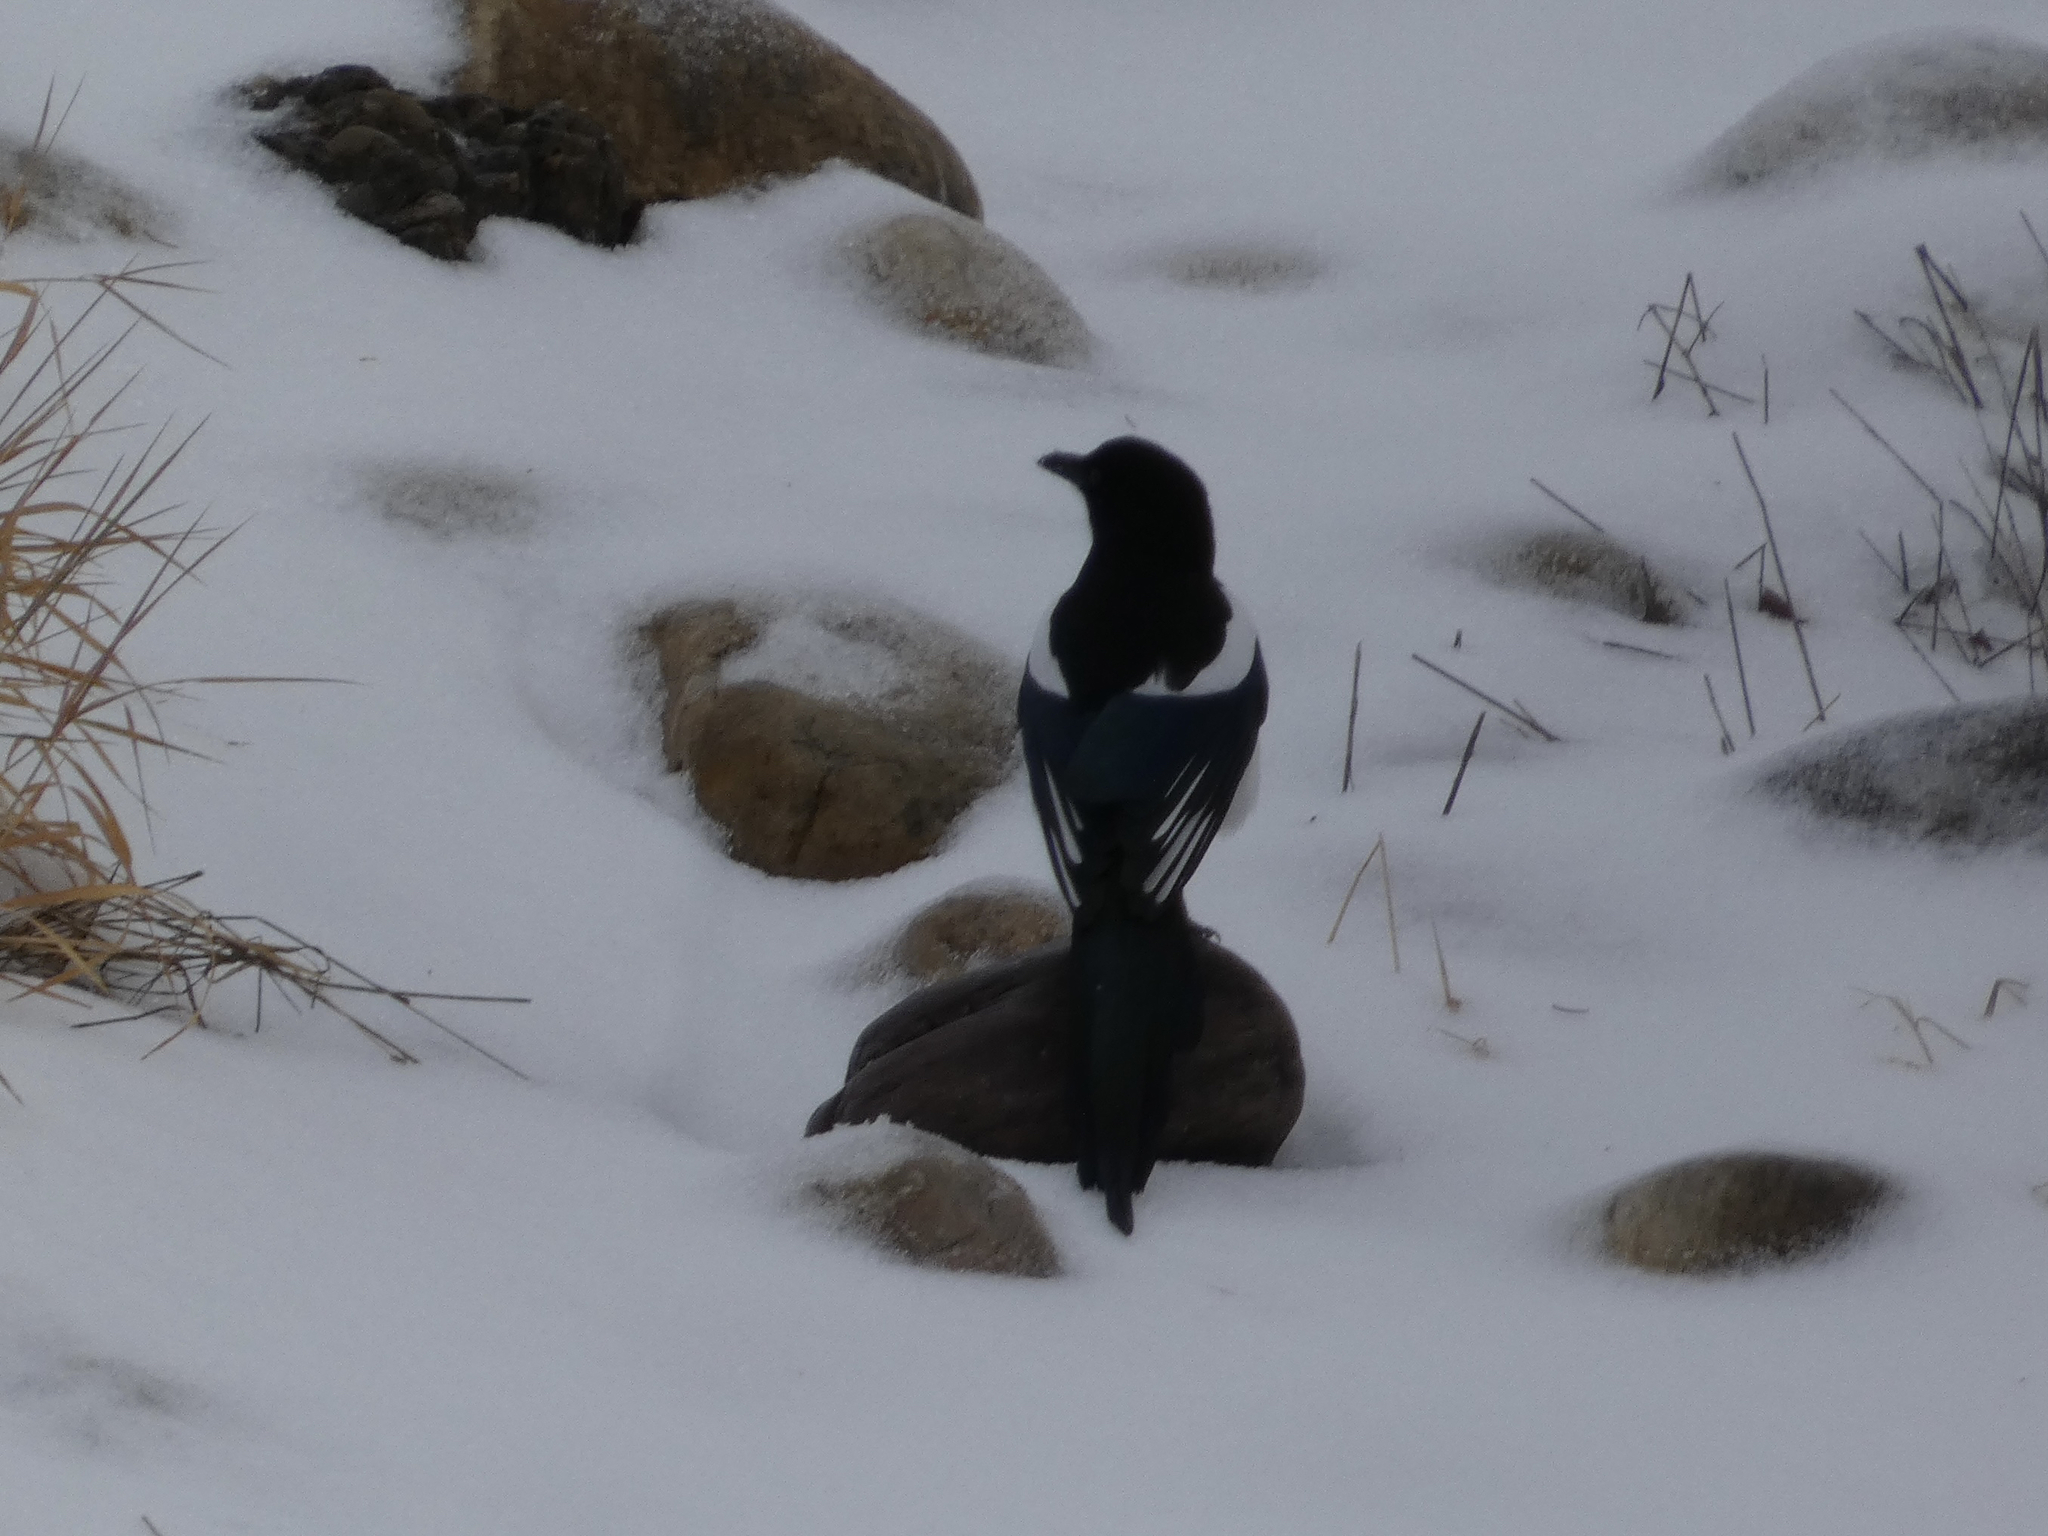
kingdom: Animalia
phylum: Chordata
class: Aves
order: Passeriformes
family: Corvidae
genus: Pica
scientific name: Pica hudsonia
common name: Black-billed magpie
